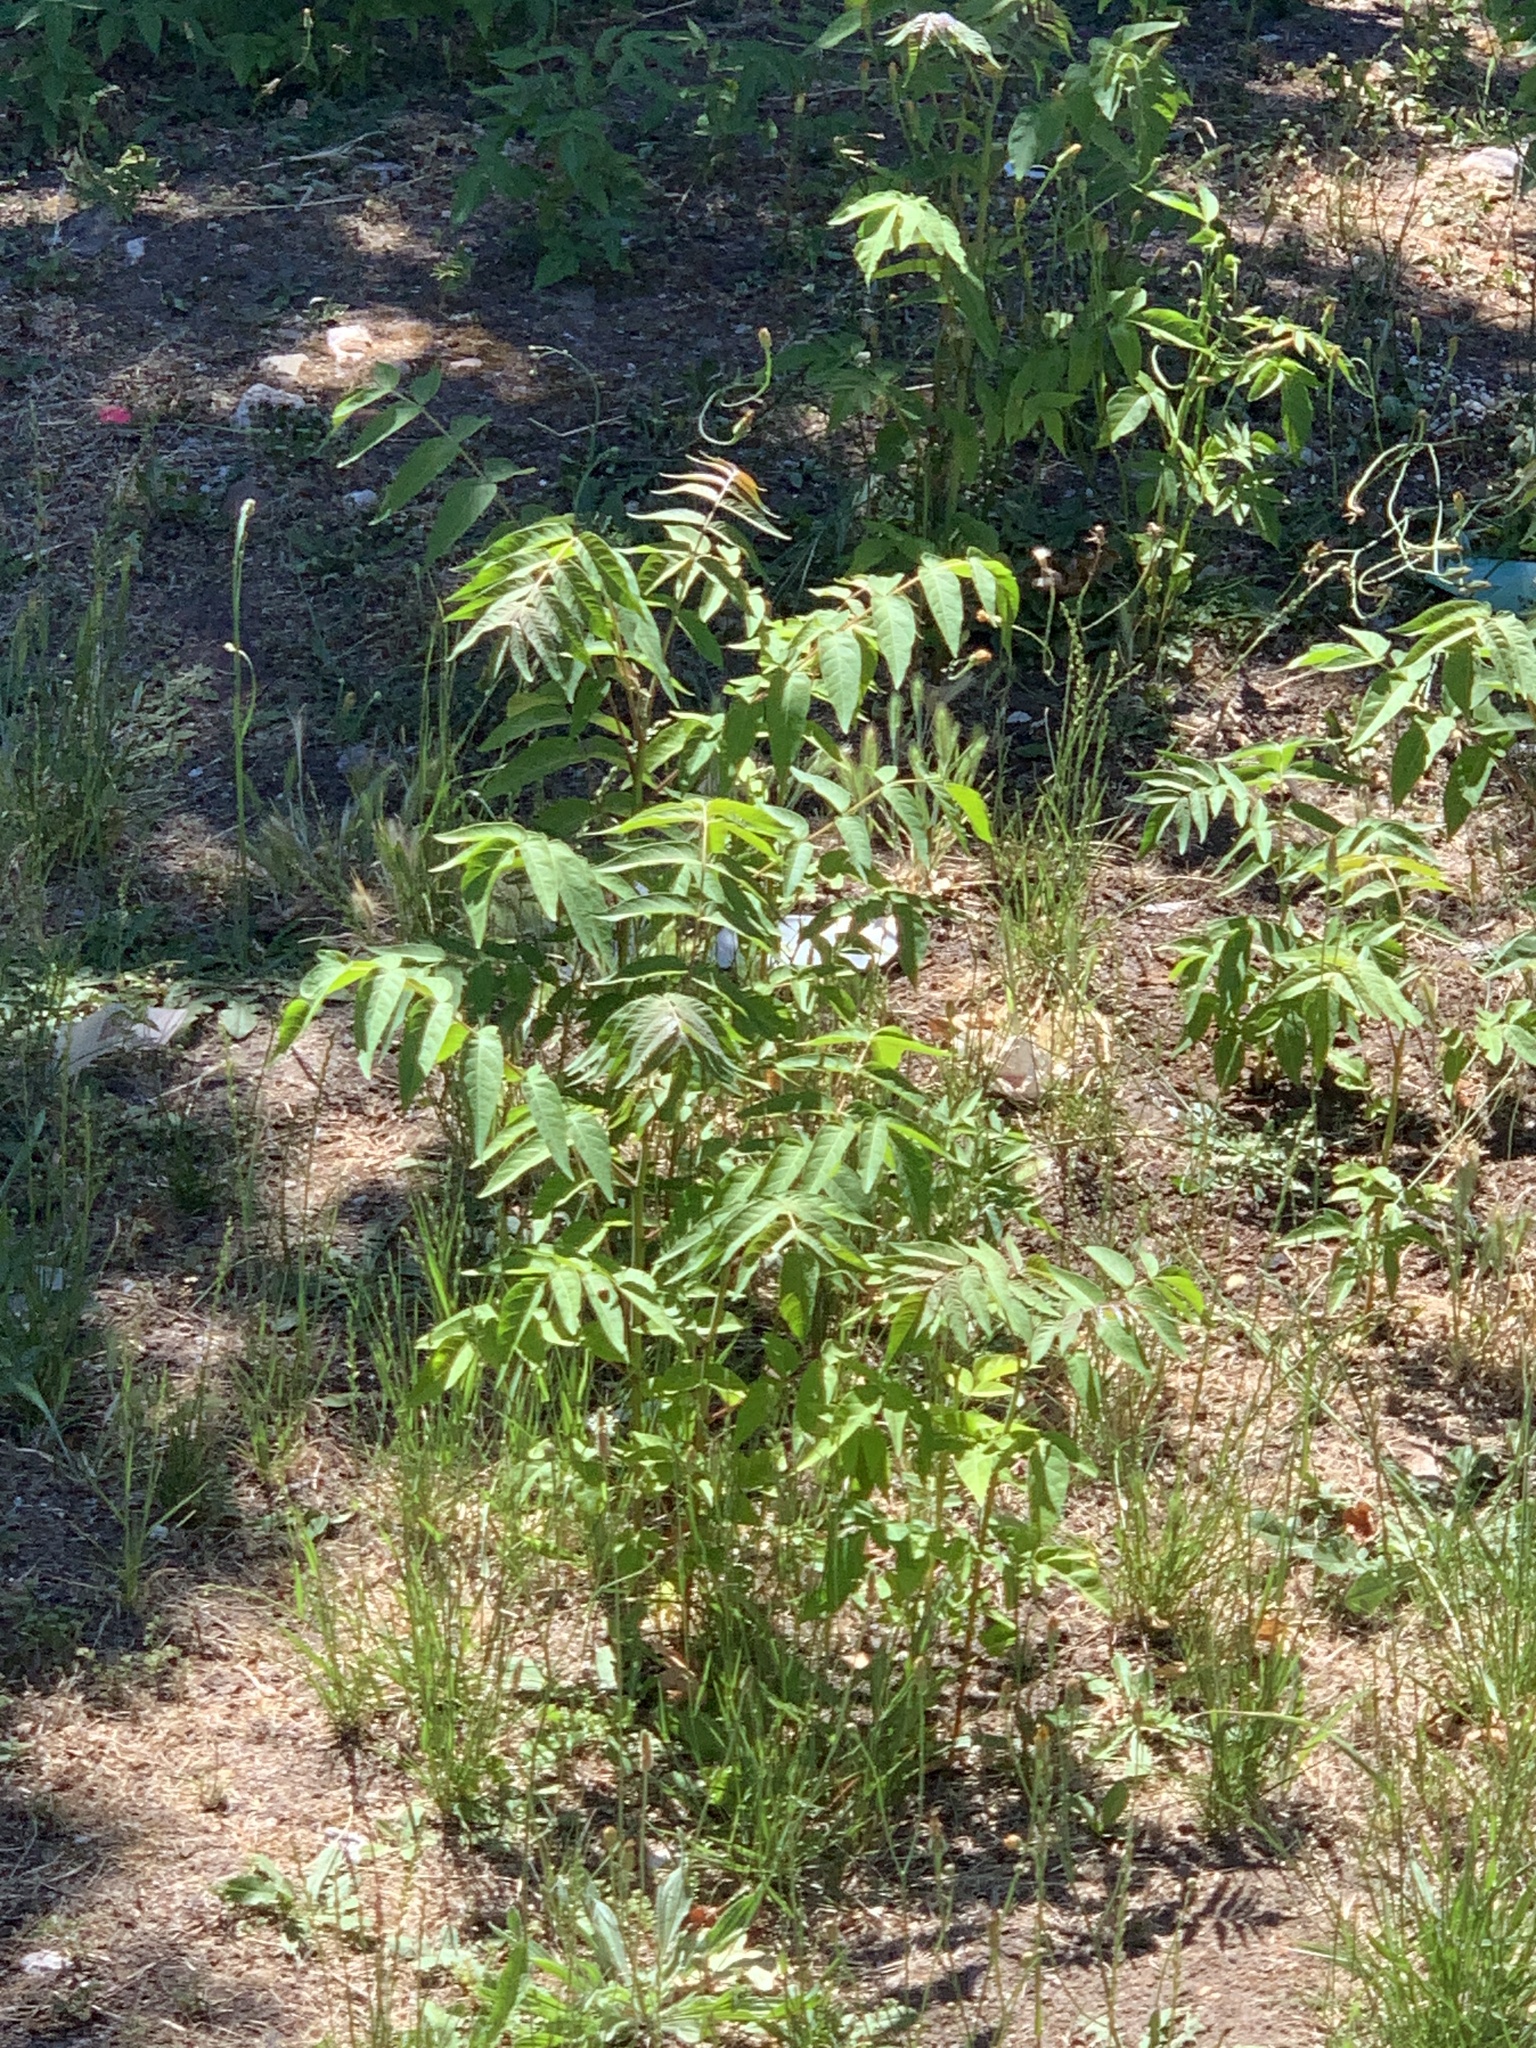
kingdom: Plantae
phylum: Tracheophyta
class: Magnoliopsida
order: Sapindales
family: Simaroubaceae
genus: Ailanthus
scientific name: Ailanthus altissima
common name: Tree-of-heaven
